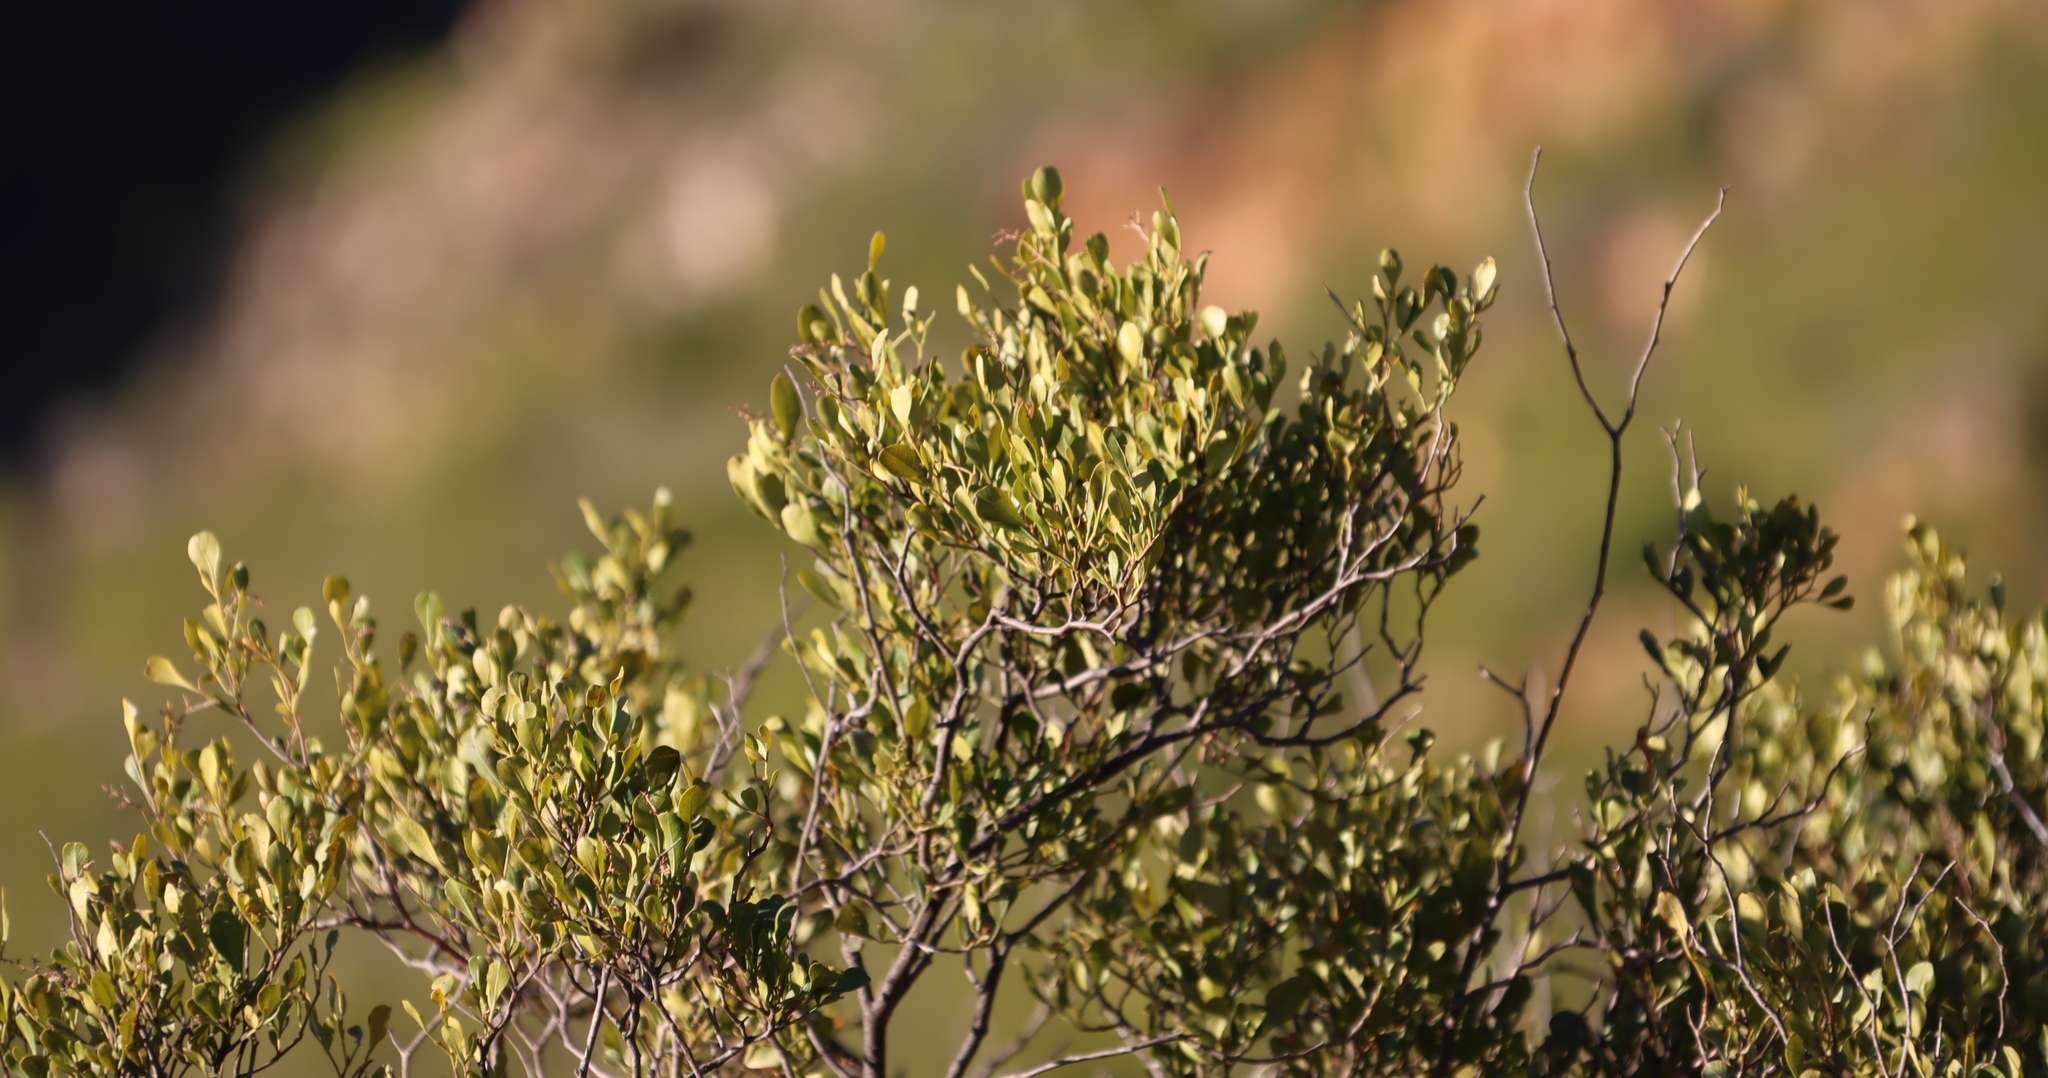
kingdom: Plantae
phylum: Tracheophyta
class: Magnoliopsida
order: Sapindales
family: Anacardiaceae
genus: Searsia
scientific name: Searsia pallens
